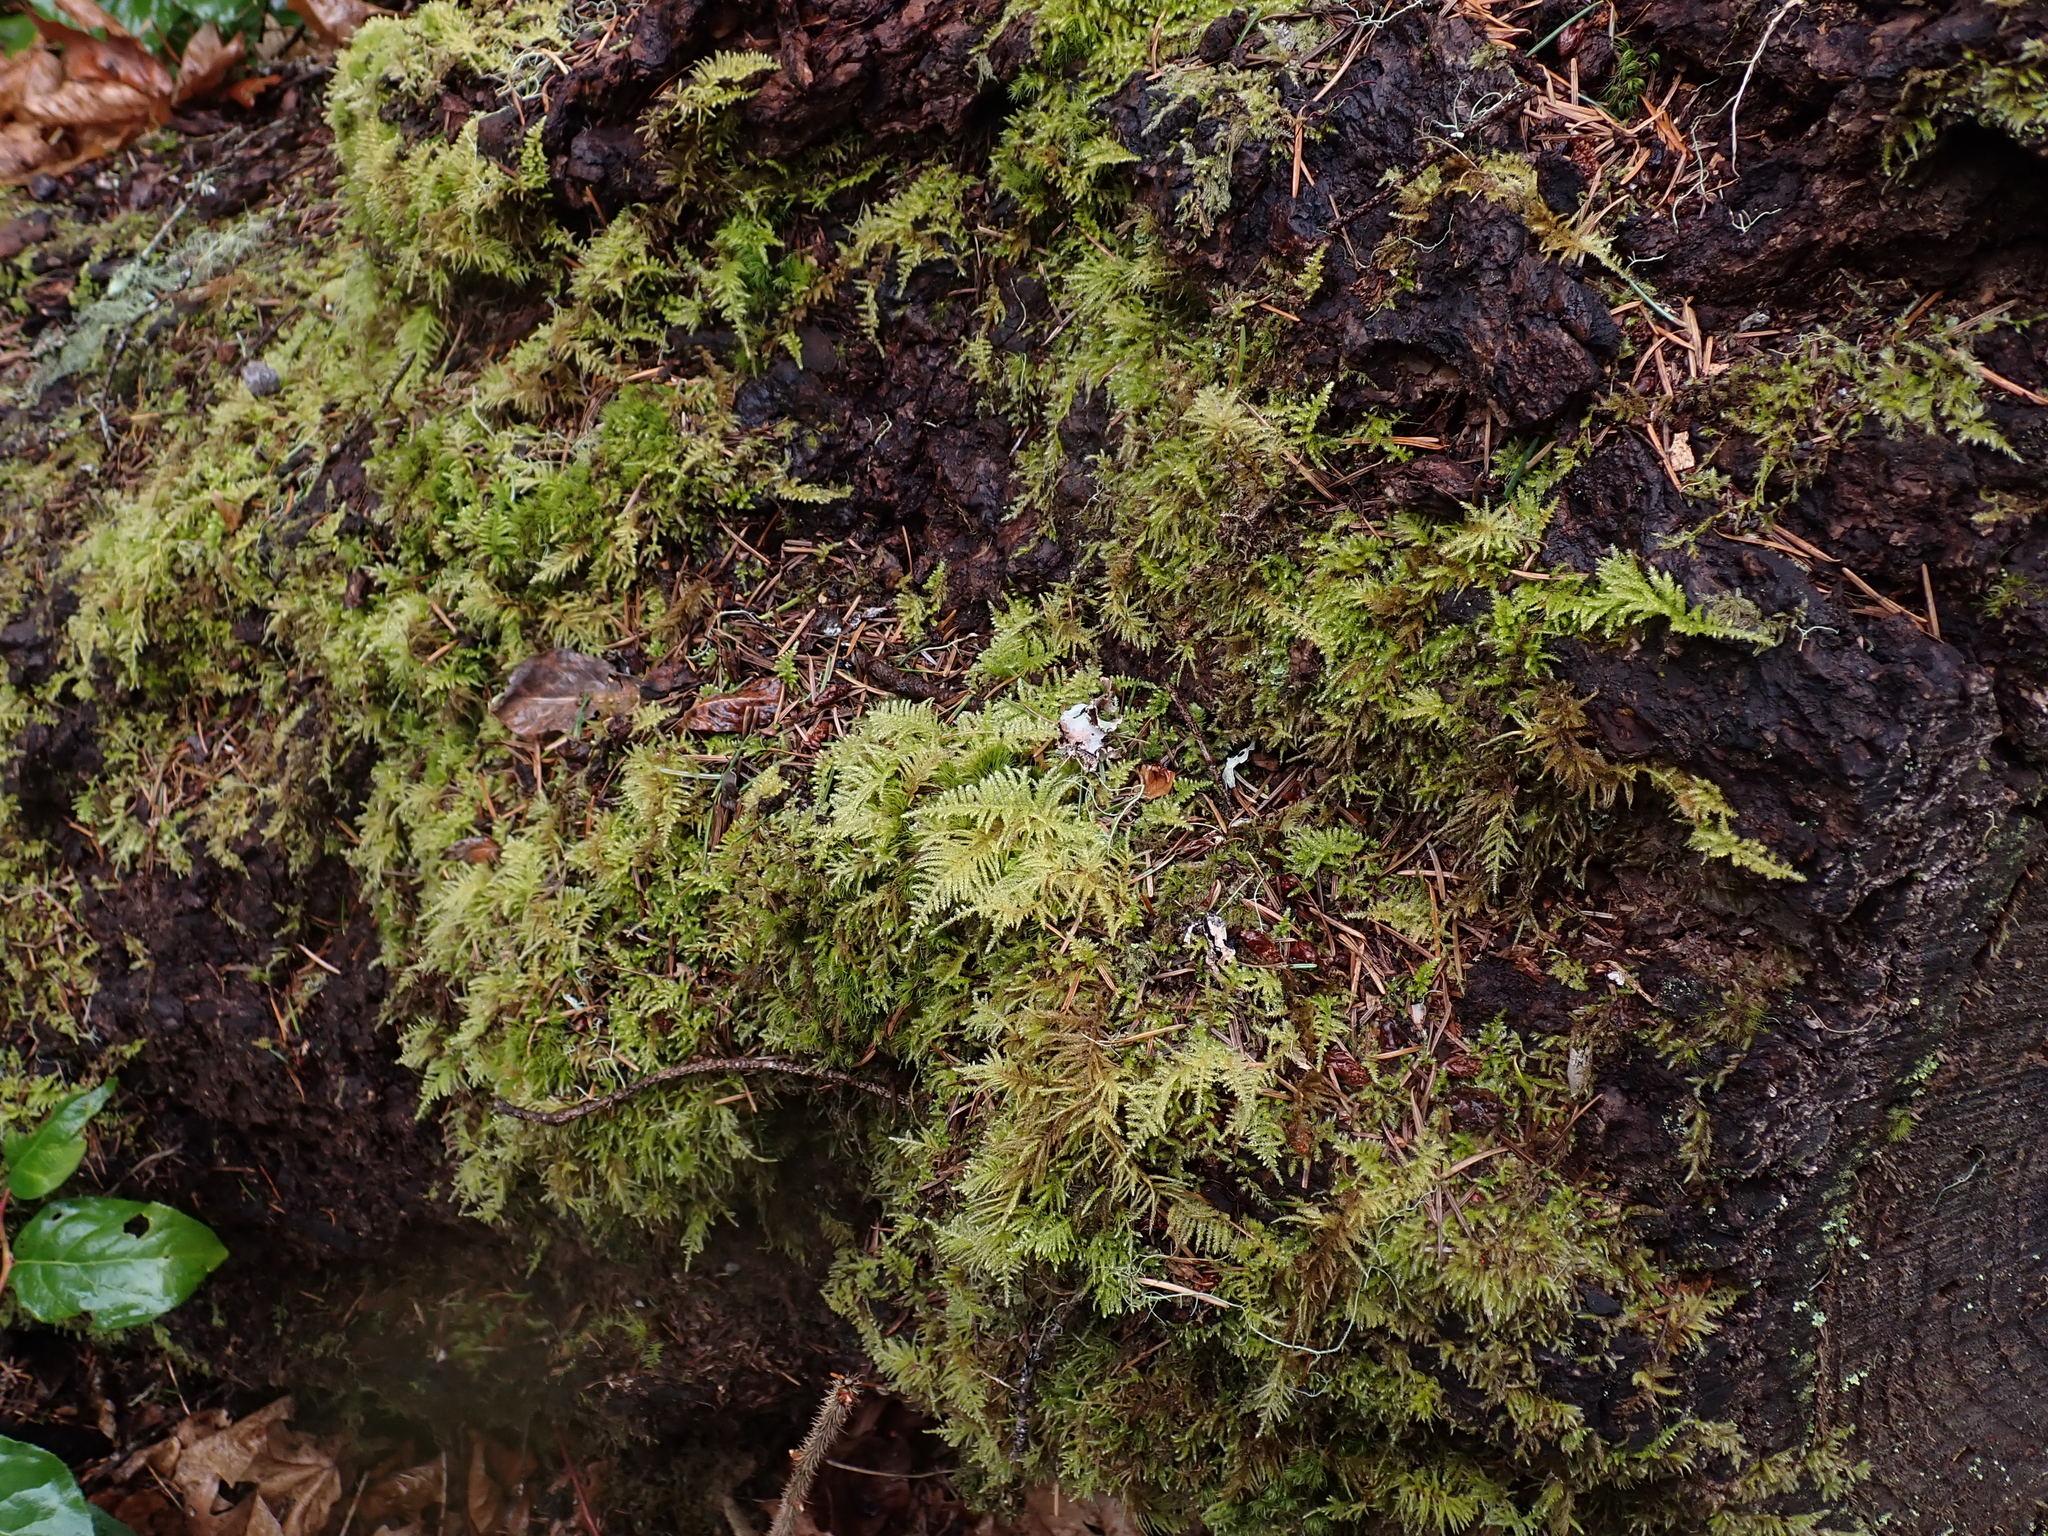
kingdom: Plantae
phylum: Bryophyta
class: Bryopsida
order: Hypnales
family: Brachytheciaceae
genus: Kindbergia
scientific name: Kindbergia oregana
